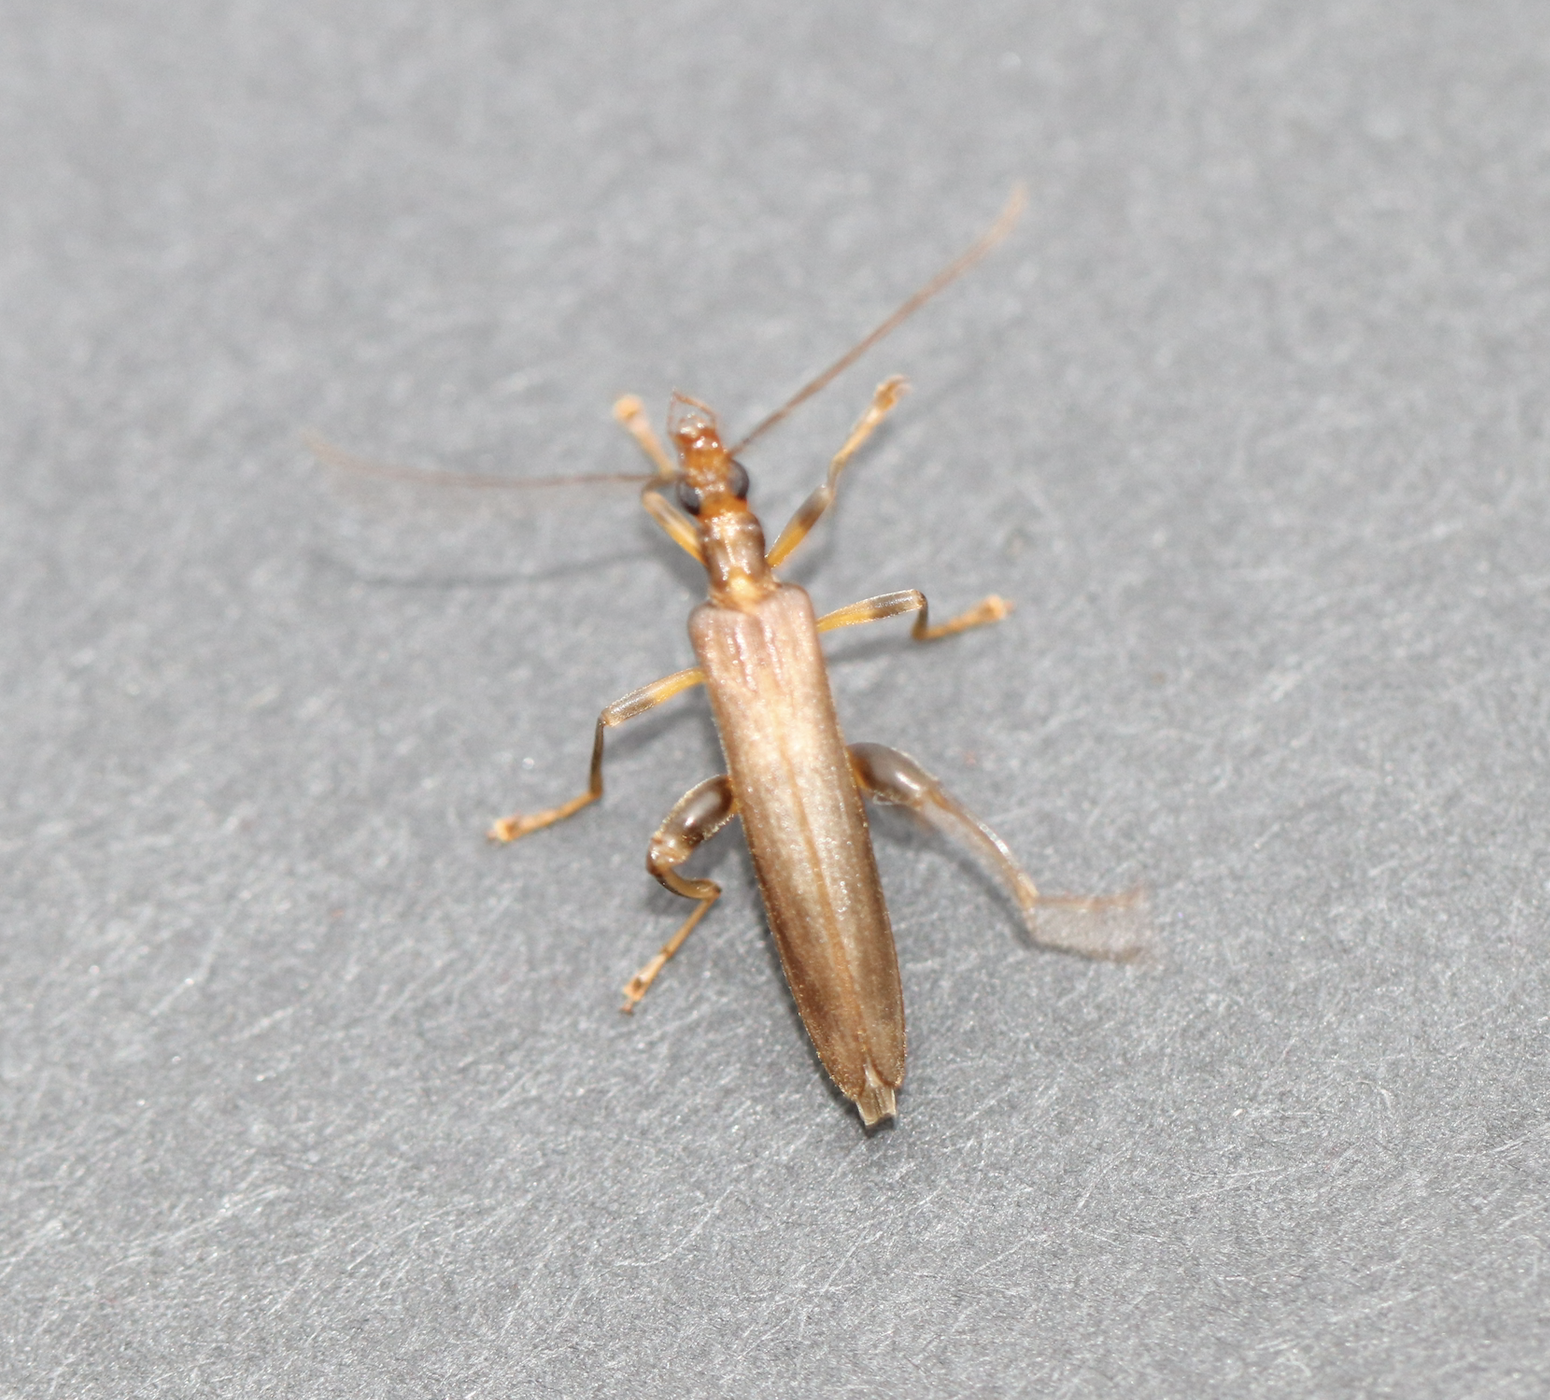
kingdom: Animalia
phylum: Arthropoda
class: Insecta
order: Coleoptera
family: Oedemeridae
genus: Oedemera
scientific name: Oedemera femoralis
